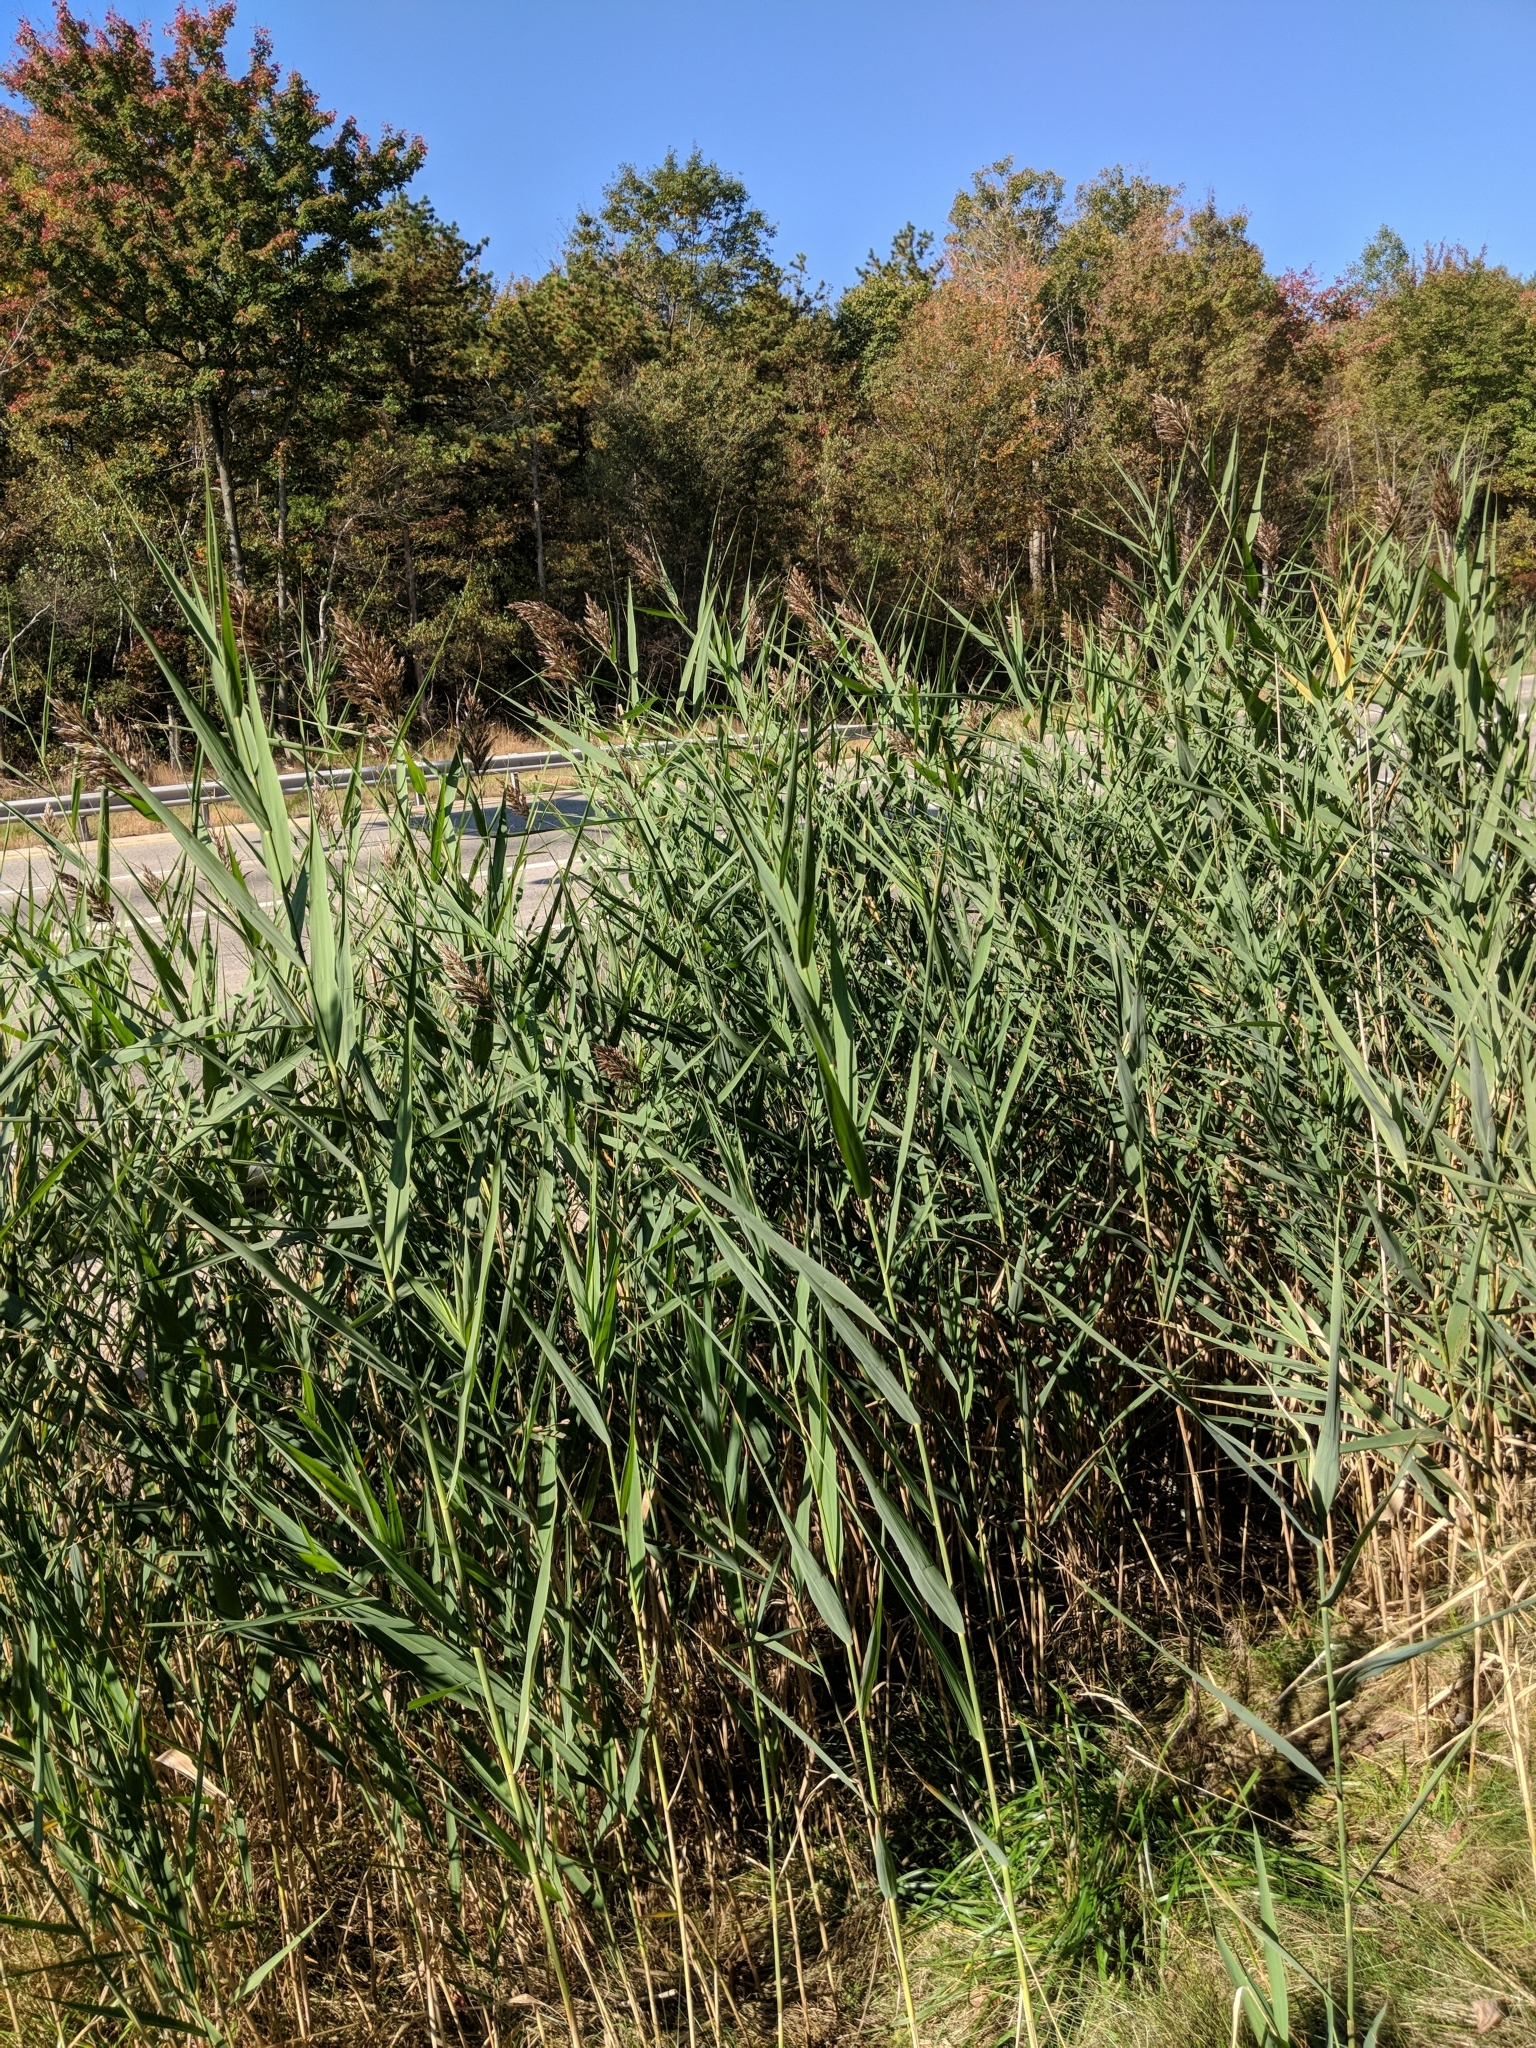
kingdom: Plantae
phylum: Tracheophyta
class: Liliopsida
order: Poales
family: Poaceae
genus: Phragmites
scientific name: Phragmites australis
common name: Common reed
